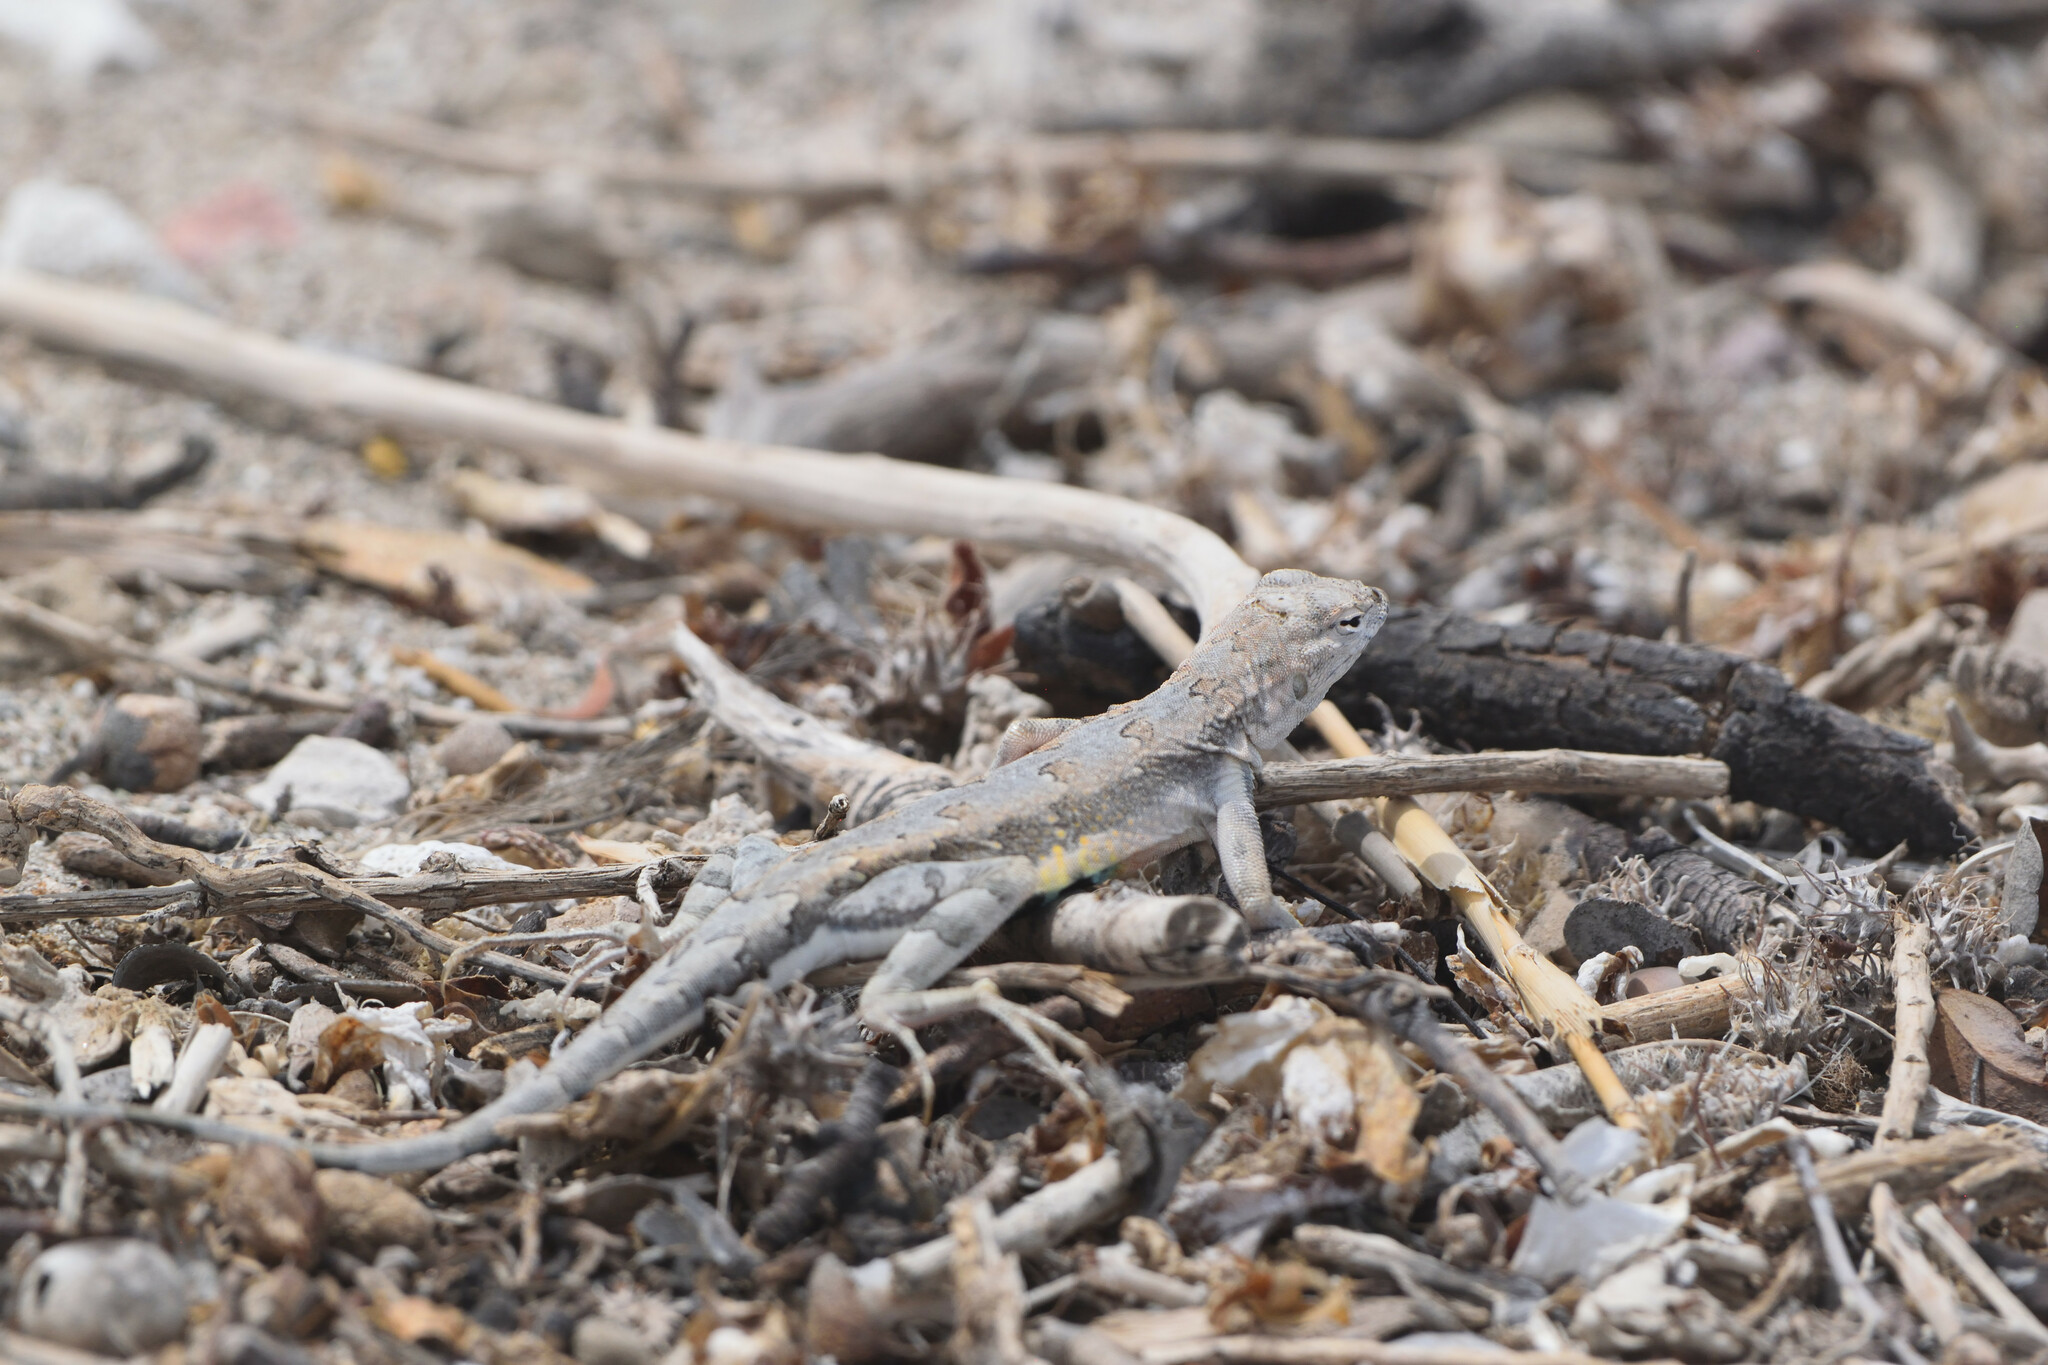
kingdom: Animalia
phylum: Chordata
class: Squamata
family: Phrynosomatidae
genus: Callisaurus
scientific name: Callisaurus draconoides
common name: Zebra-tailed lizard
